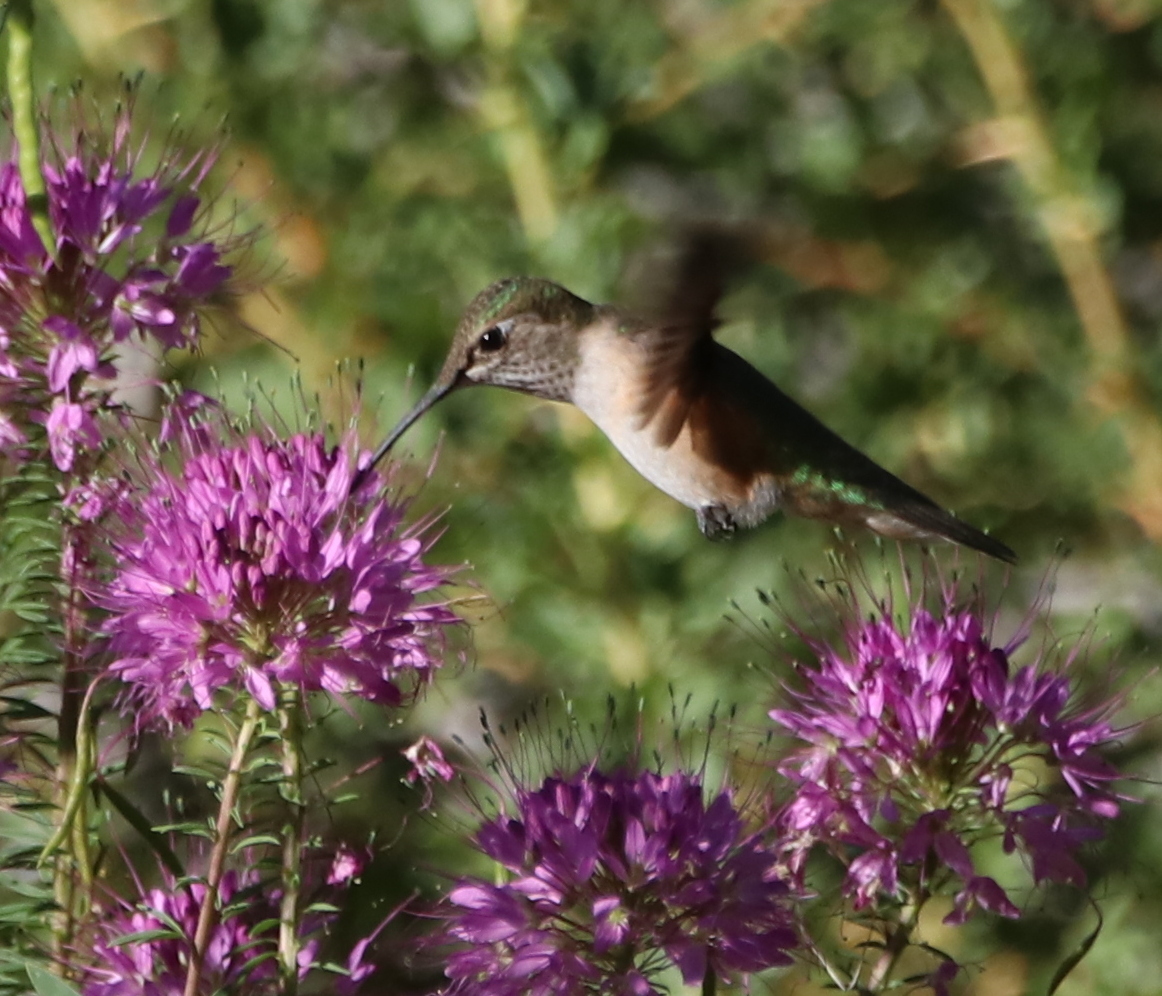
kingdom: Animalia
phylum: Chordata
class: Aves
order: Apodiformes
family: Trochilidae
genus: Selasphorus
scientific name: Selasphorus platycercus
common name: Broad-tailed hummingbird
